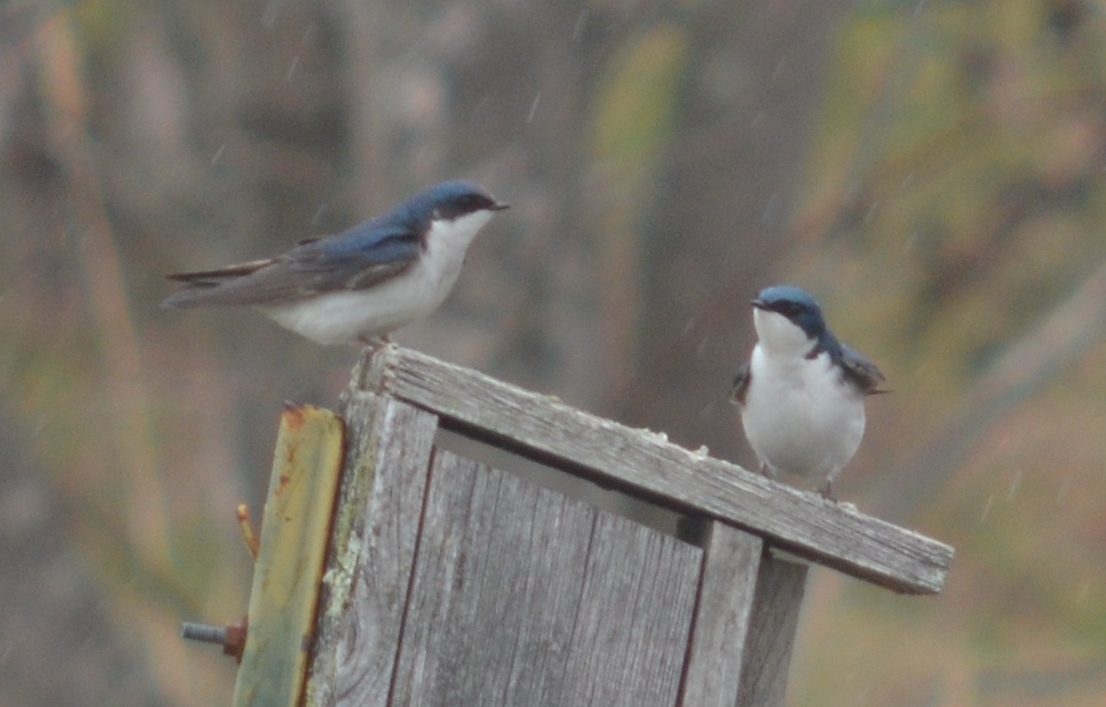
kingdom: Animalia
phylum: Chordata
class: Aves
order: Passeriformes
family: Hirundinidae
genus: Tachycineta
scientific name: Tachycineta bicolor
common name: Tree swallow
